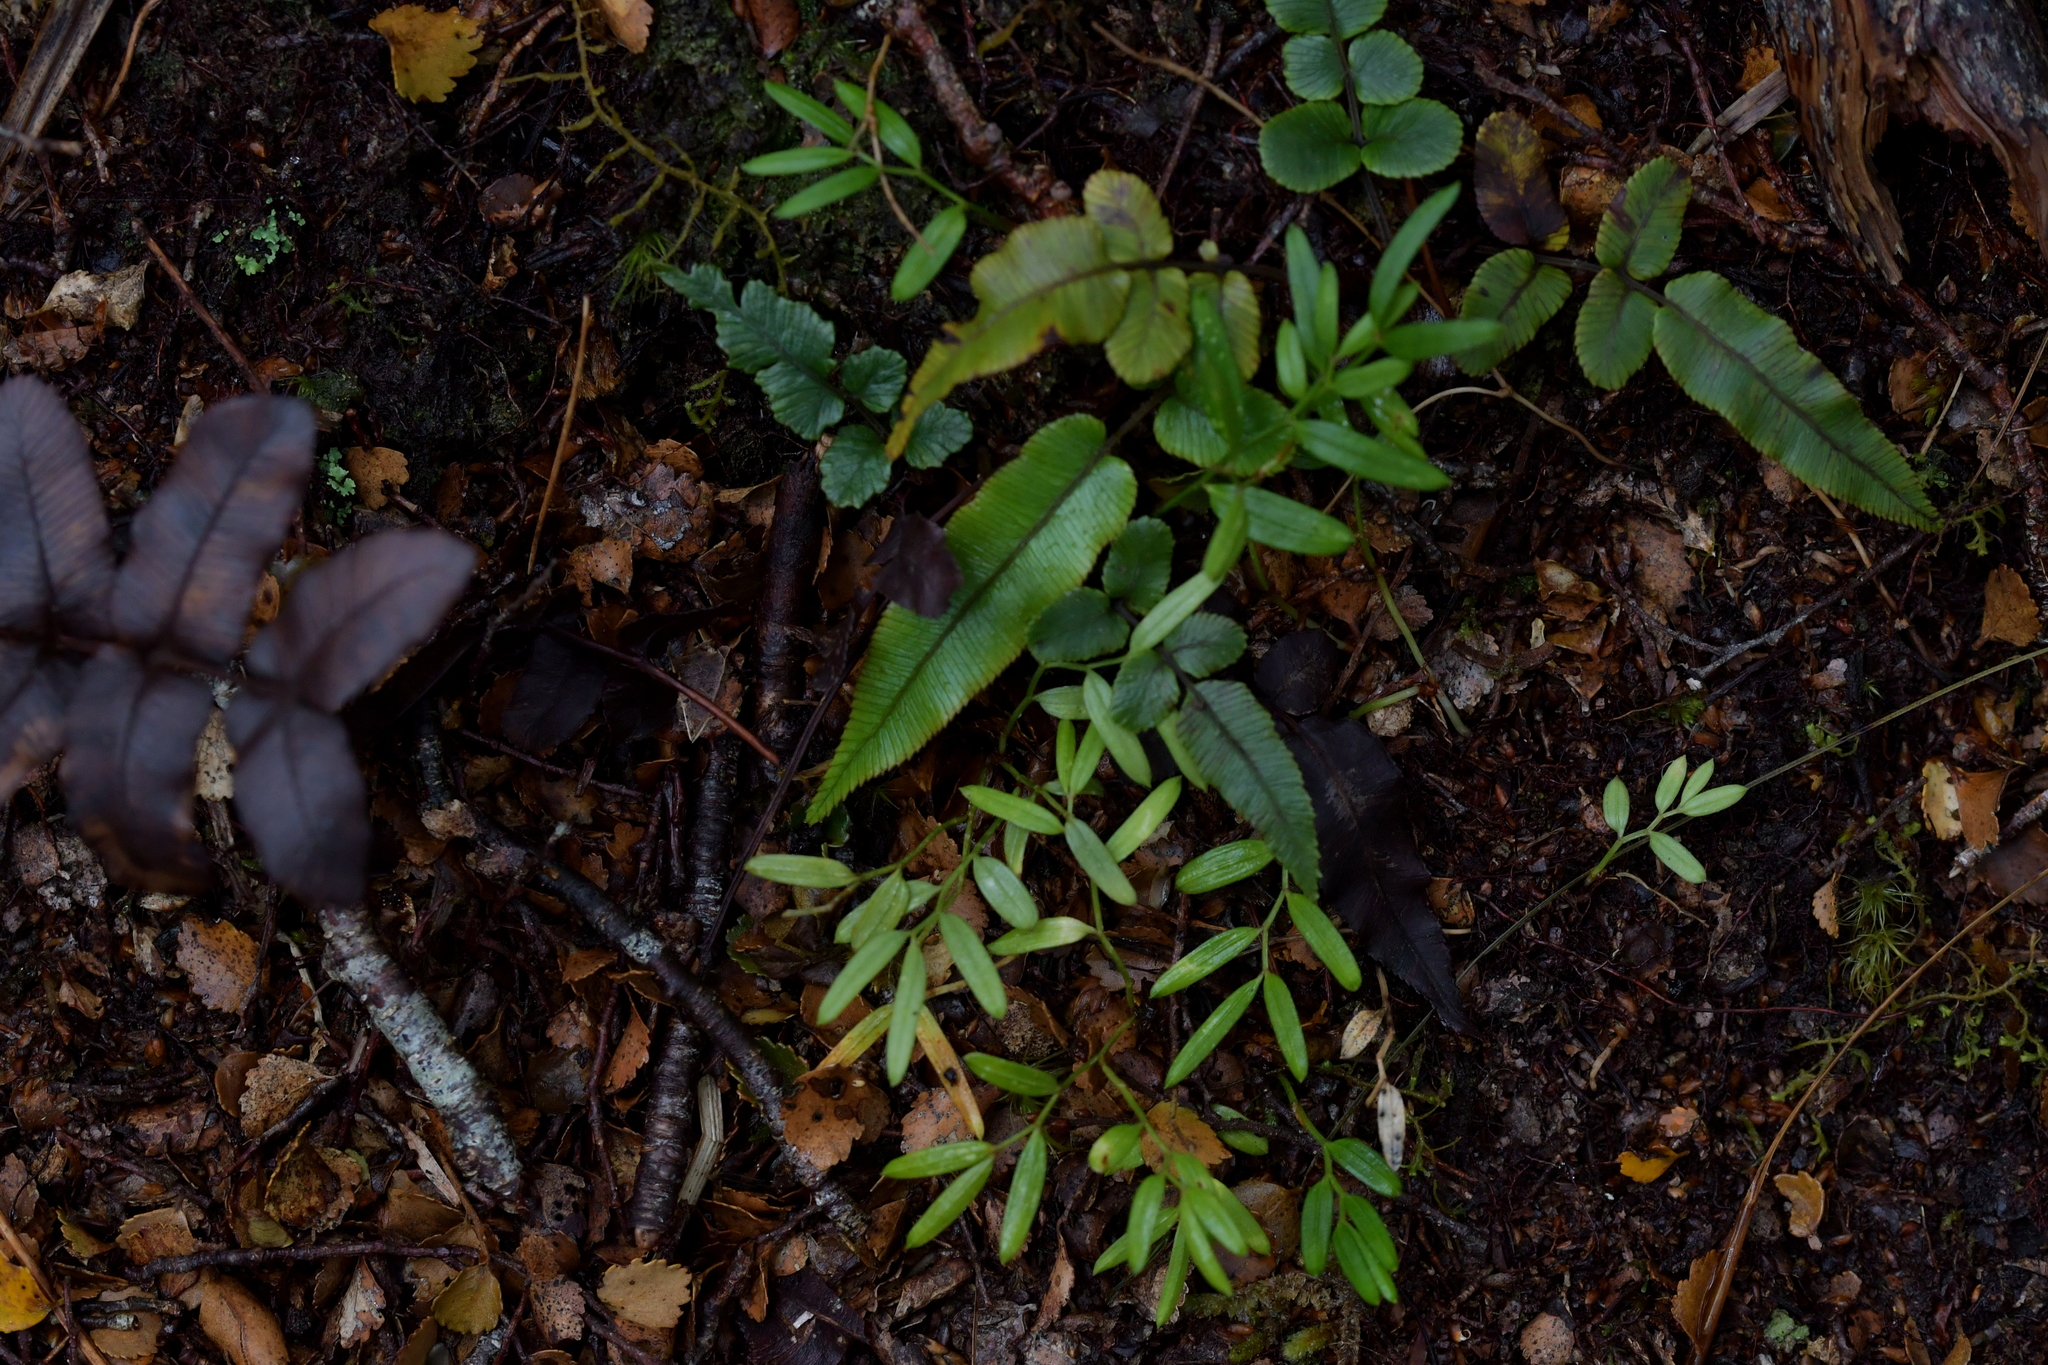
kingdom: Plantae
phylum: Tracheophyta
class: Liliopsida
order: Liliales
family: Alstroemeriaceae
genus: Luzuriaga
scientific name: Luzuriaga parviflora
